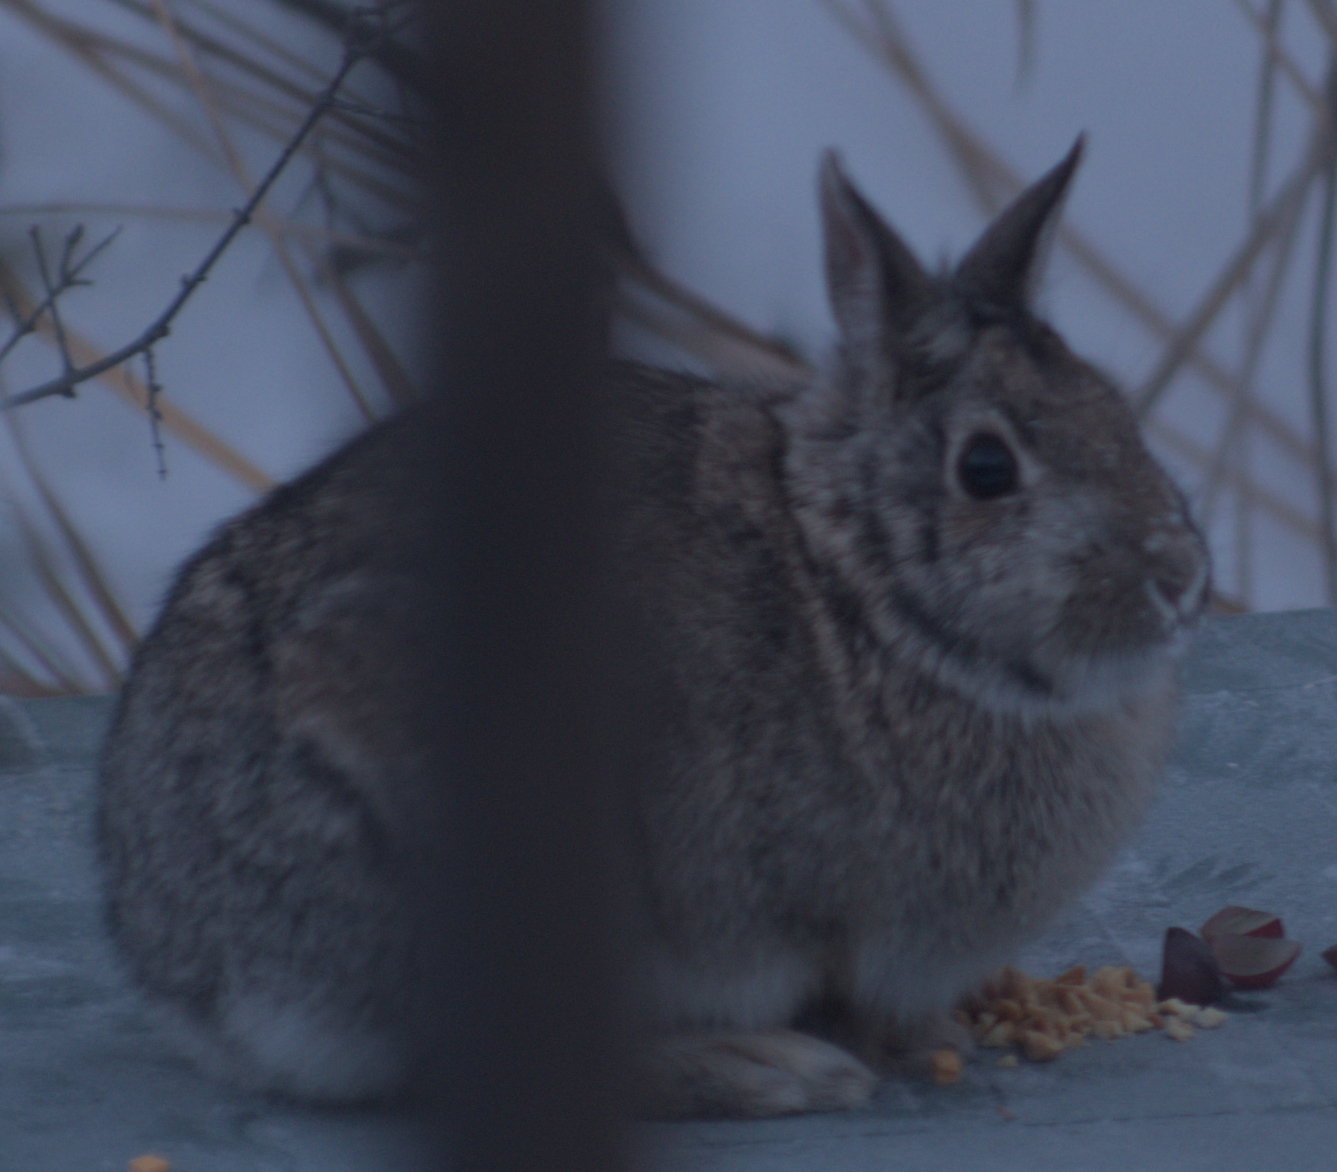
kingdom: Animalia
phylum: Chordata
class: Mammalia
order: Lagomorpha
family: Leporidae
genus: Sylvilagus
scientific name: Sylvilagus floridanus
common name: Eastern cottontail
